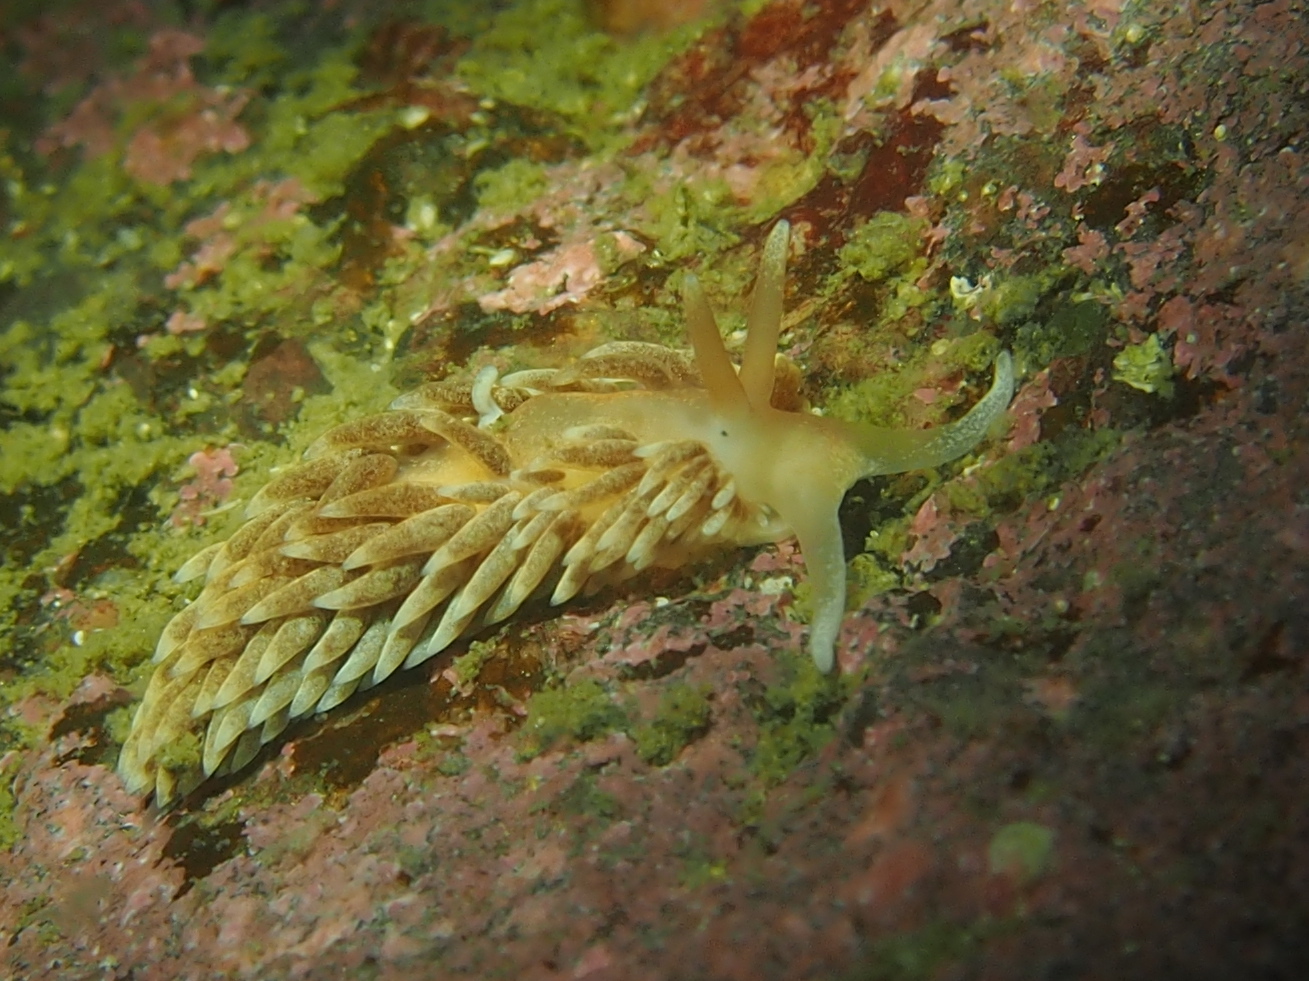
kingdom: Animalia
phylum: Mollusca
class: Gastropoda
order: Nudibranchia
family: Aeolidiidae
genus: Aeolidiella
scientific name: Aeolidiella glauca
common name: Orange-brown aeolid
